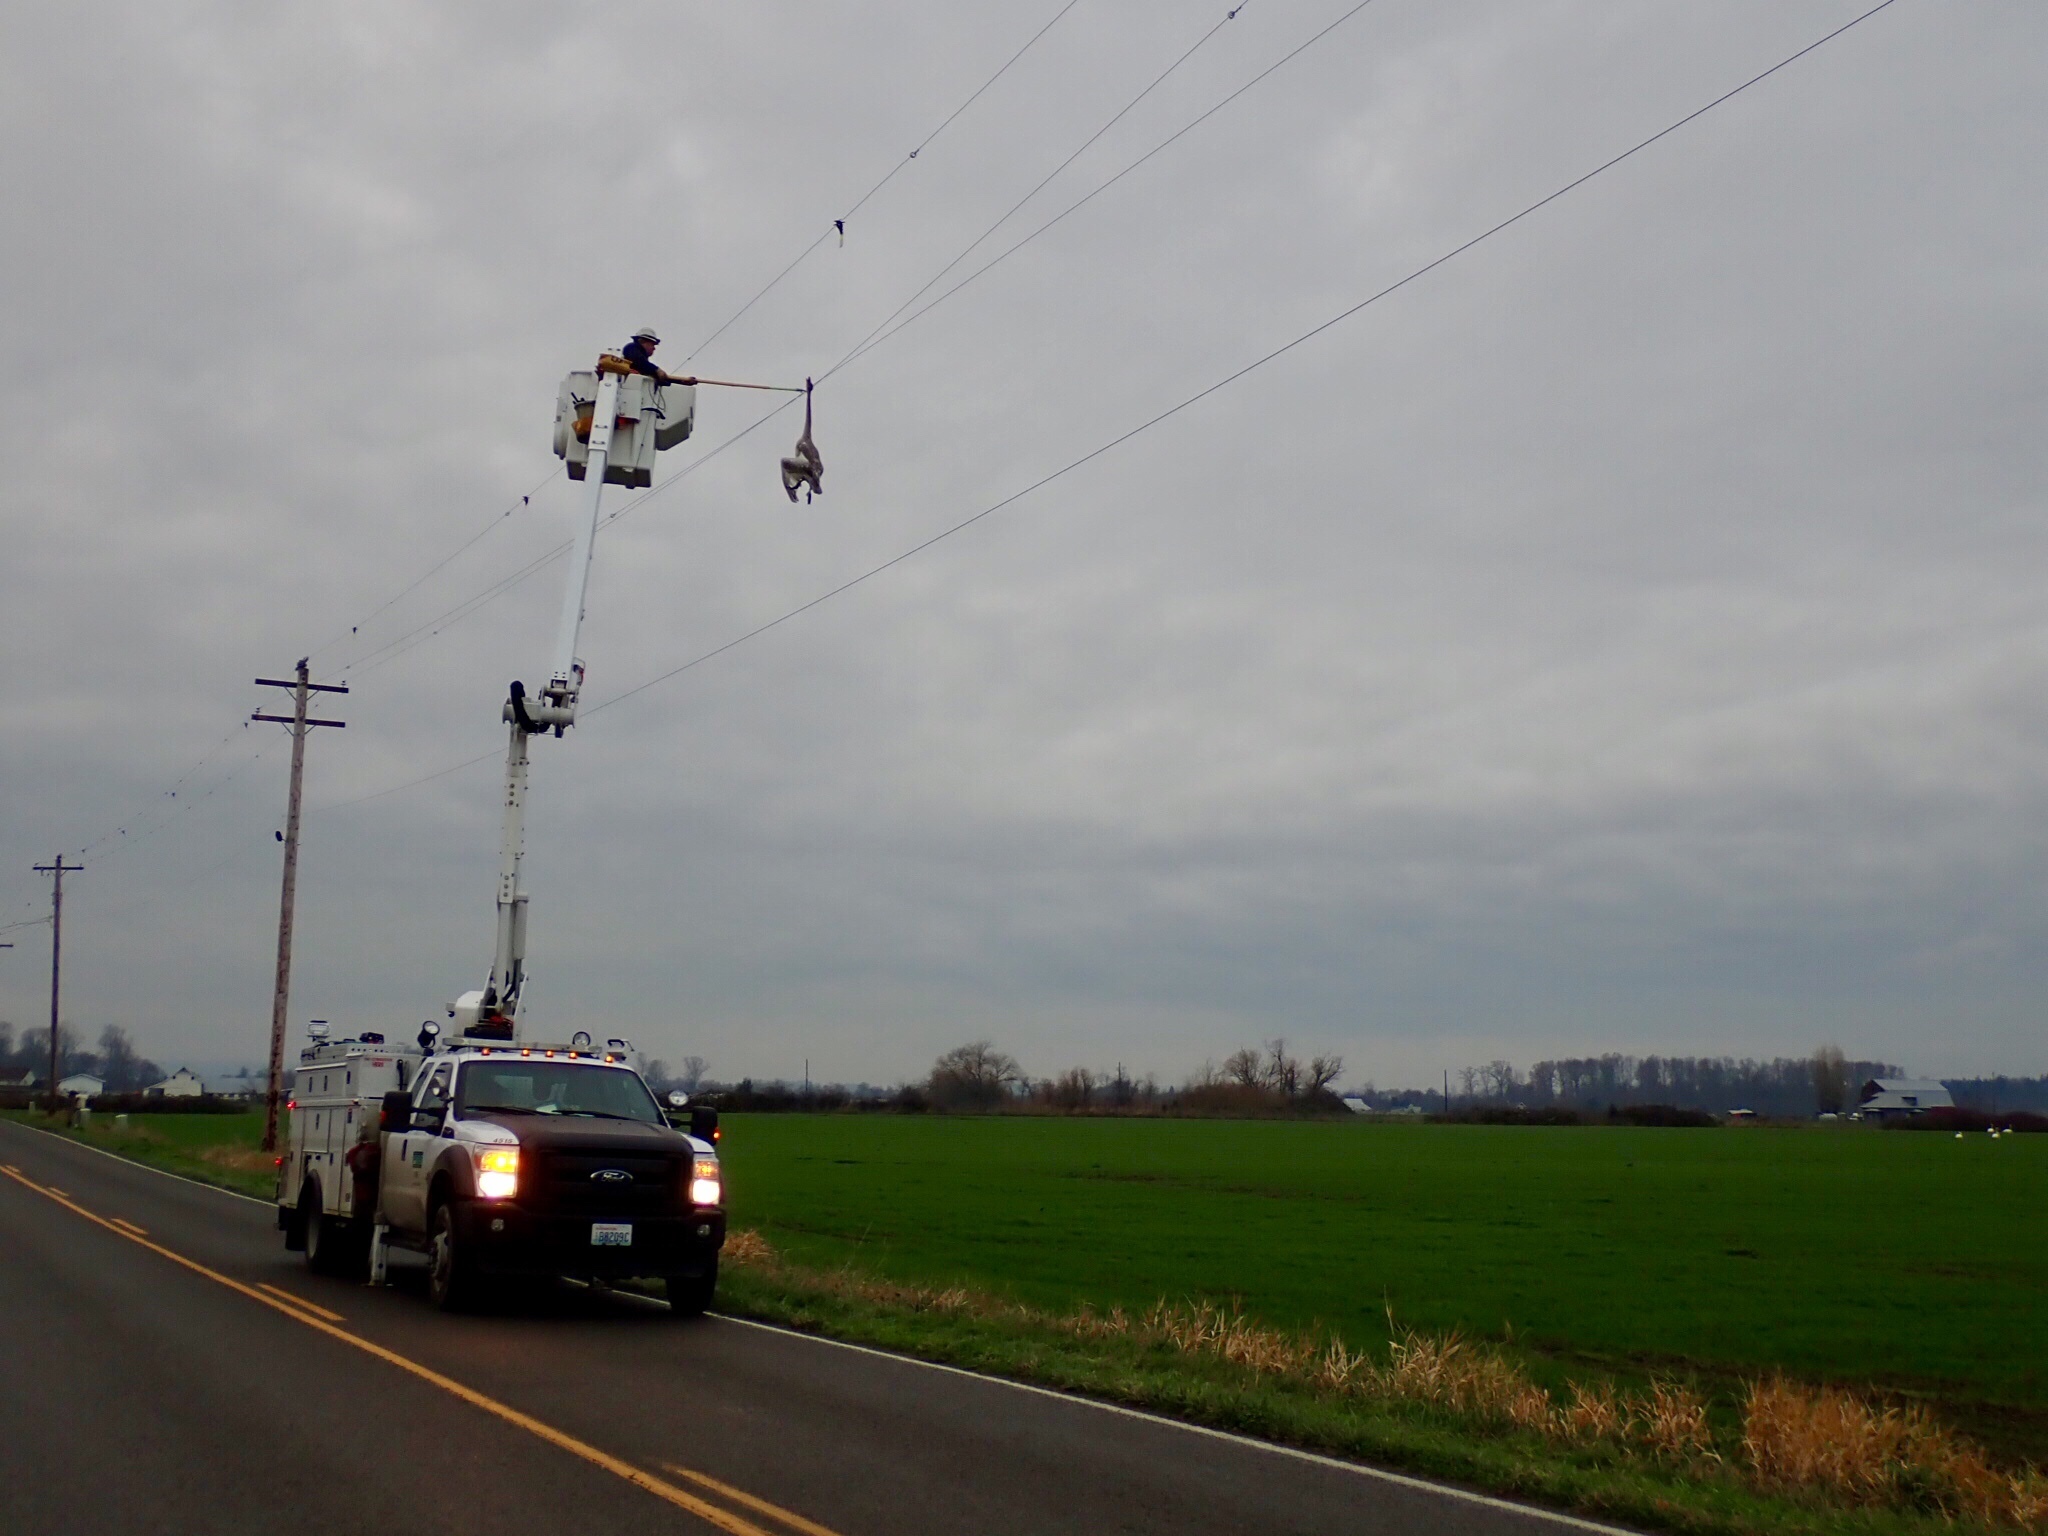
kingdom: Animalia
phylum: Chordata
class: Aves
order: Anseriformes
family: Anatidae
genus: Cygnus
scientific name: Cygnus columbianus
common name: Tundra swan
